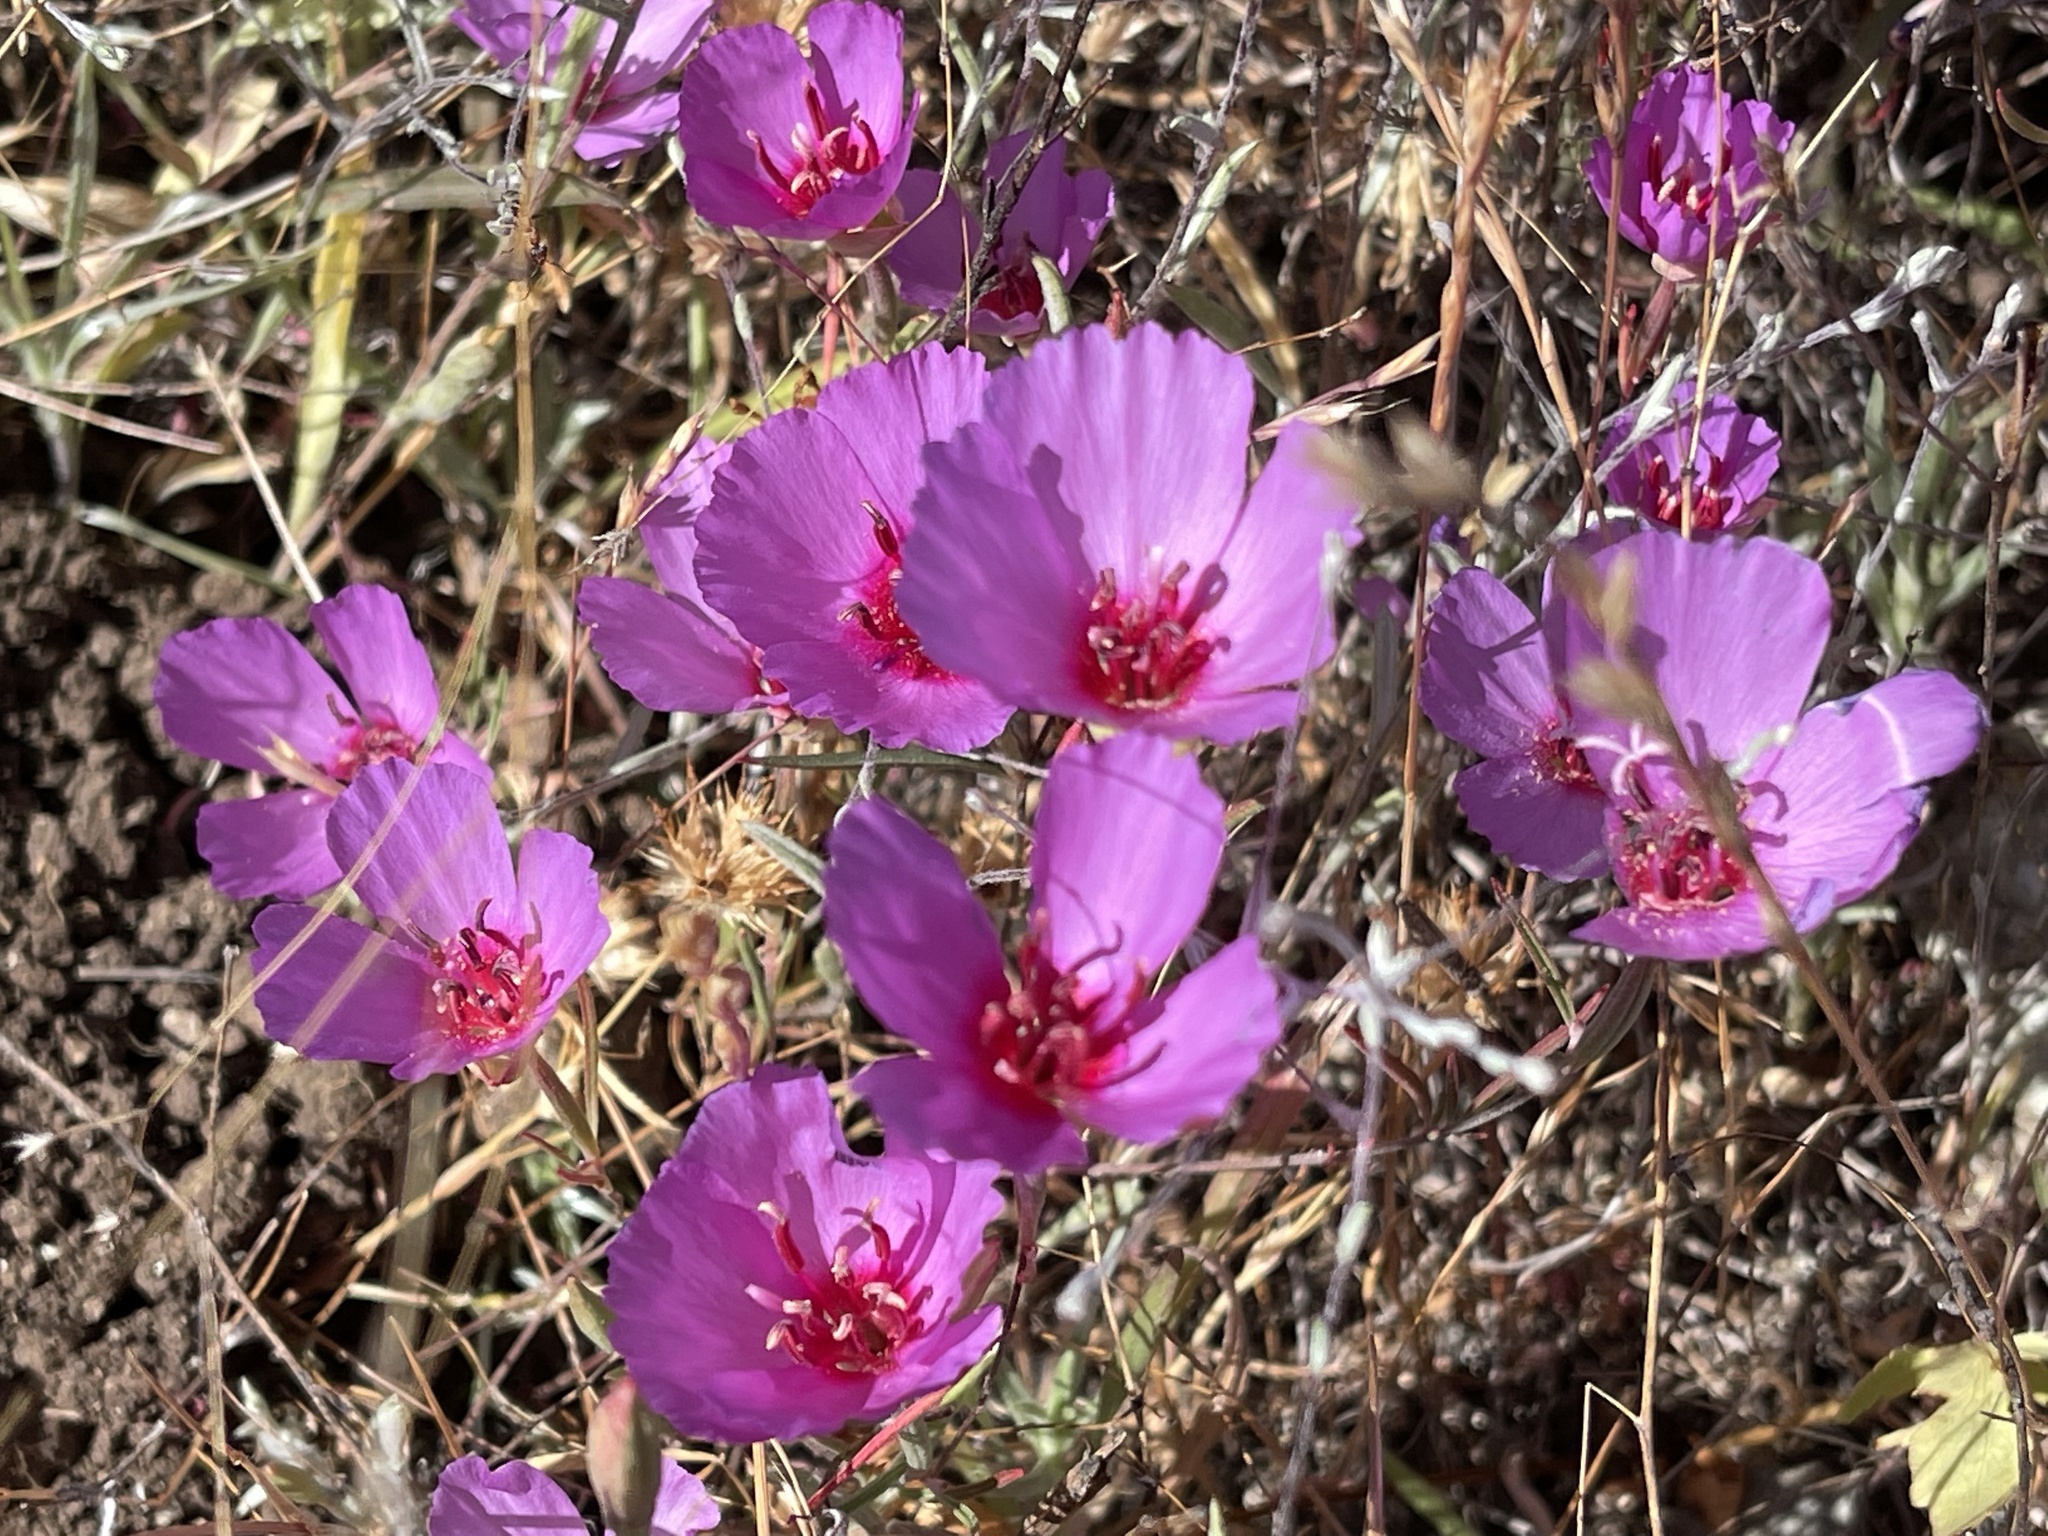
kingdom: Plantae
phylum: Tracheophyta
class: Magnoliopsida
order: Myrtales
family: Onagraceae
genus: Clarkia
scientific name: Clarkia rubicunda
